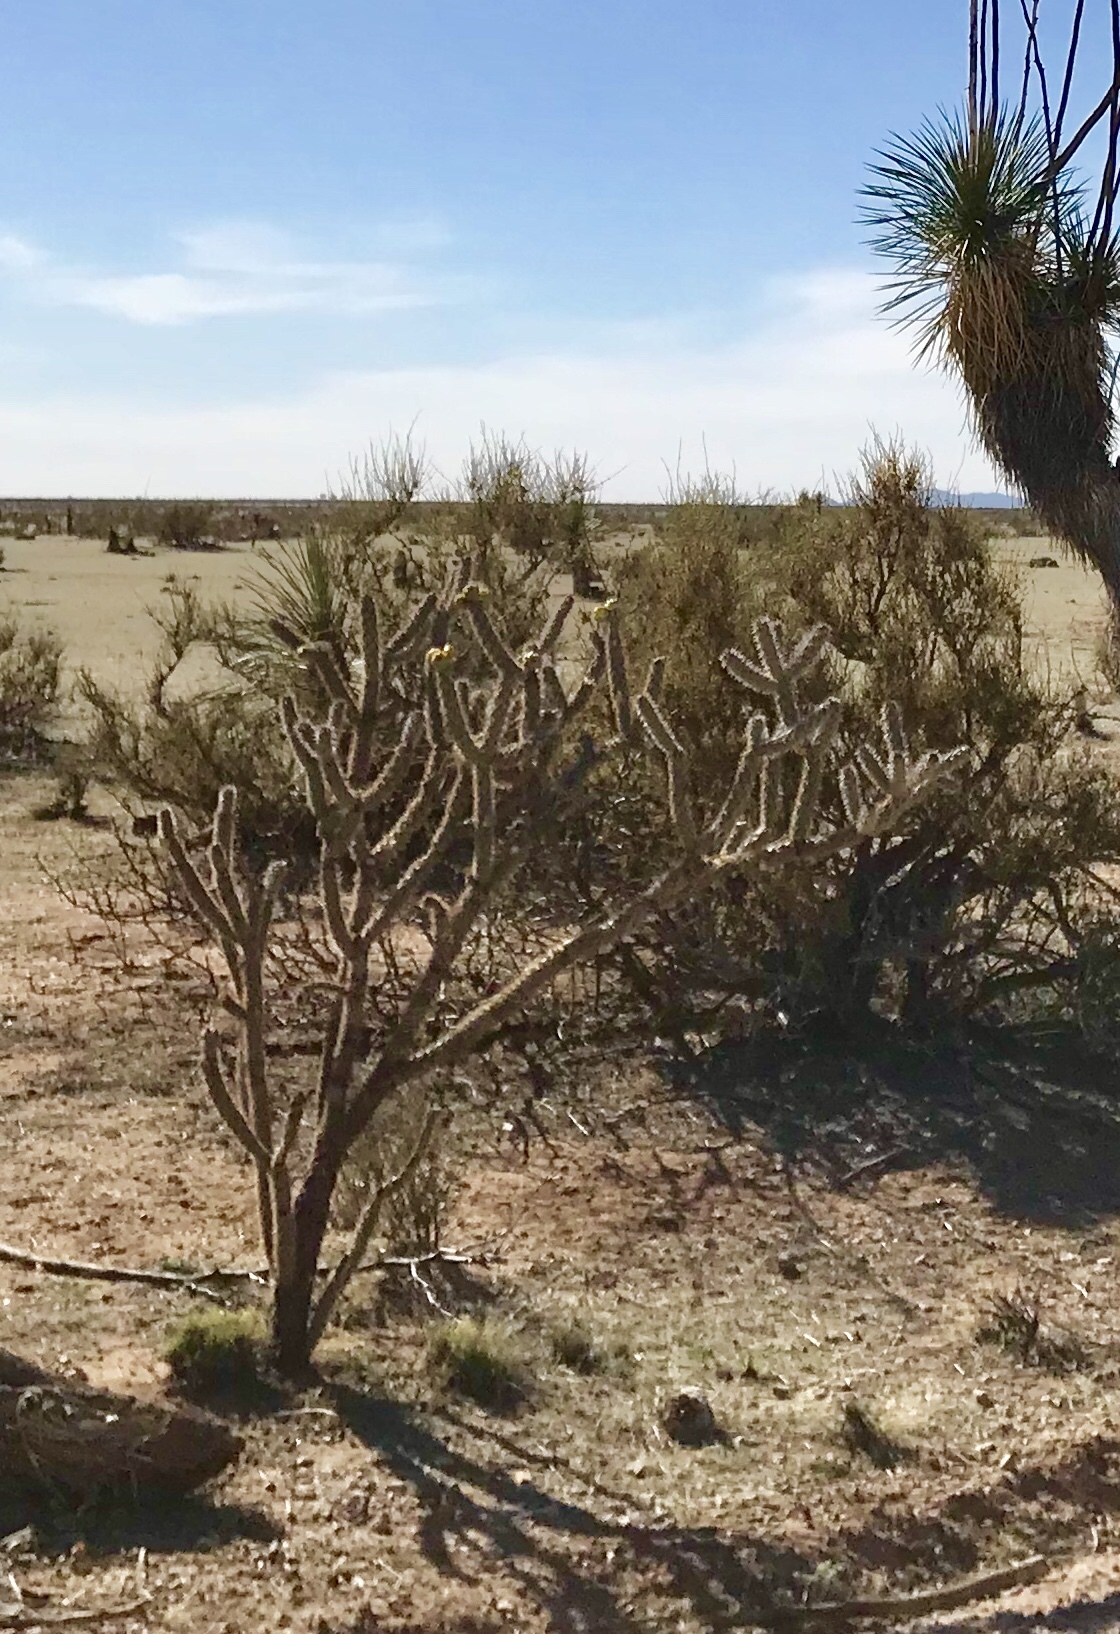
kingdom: Plantae
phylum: Tracheophyta
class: Magnoliopsida
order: Caryophyllales
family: Cactaceae
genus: Cylindropuntia
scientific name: Cylindropuntia imbricata
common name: Candelabrum cactus
